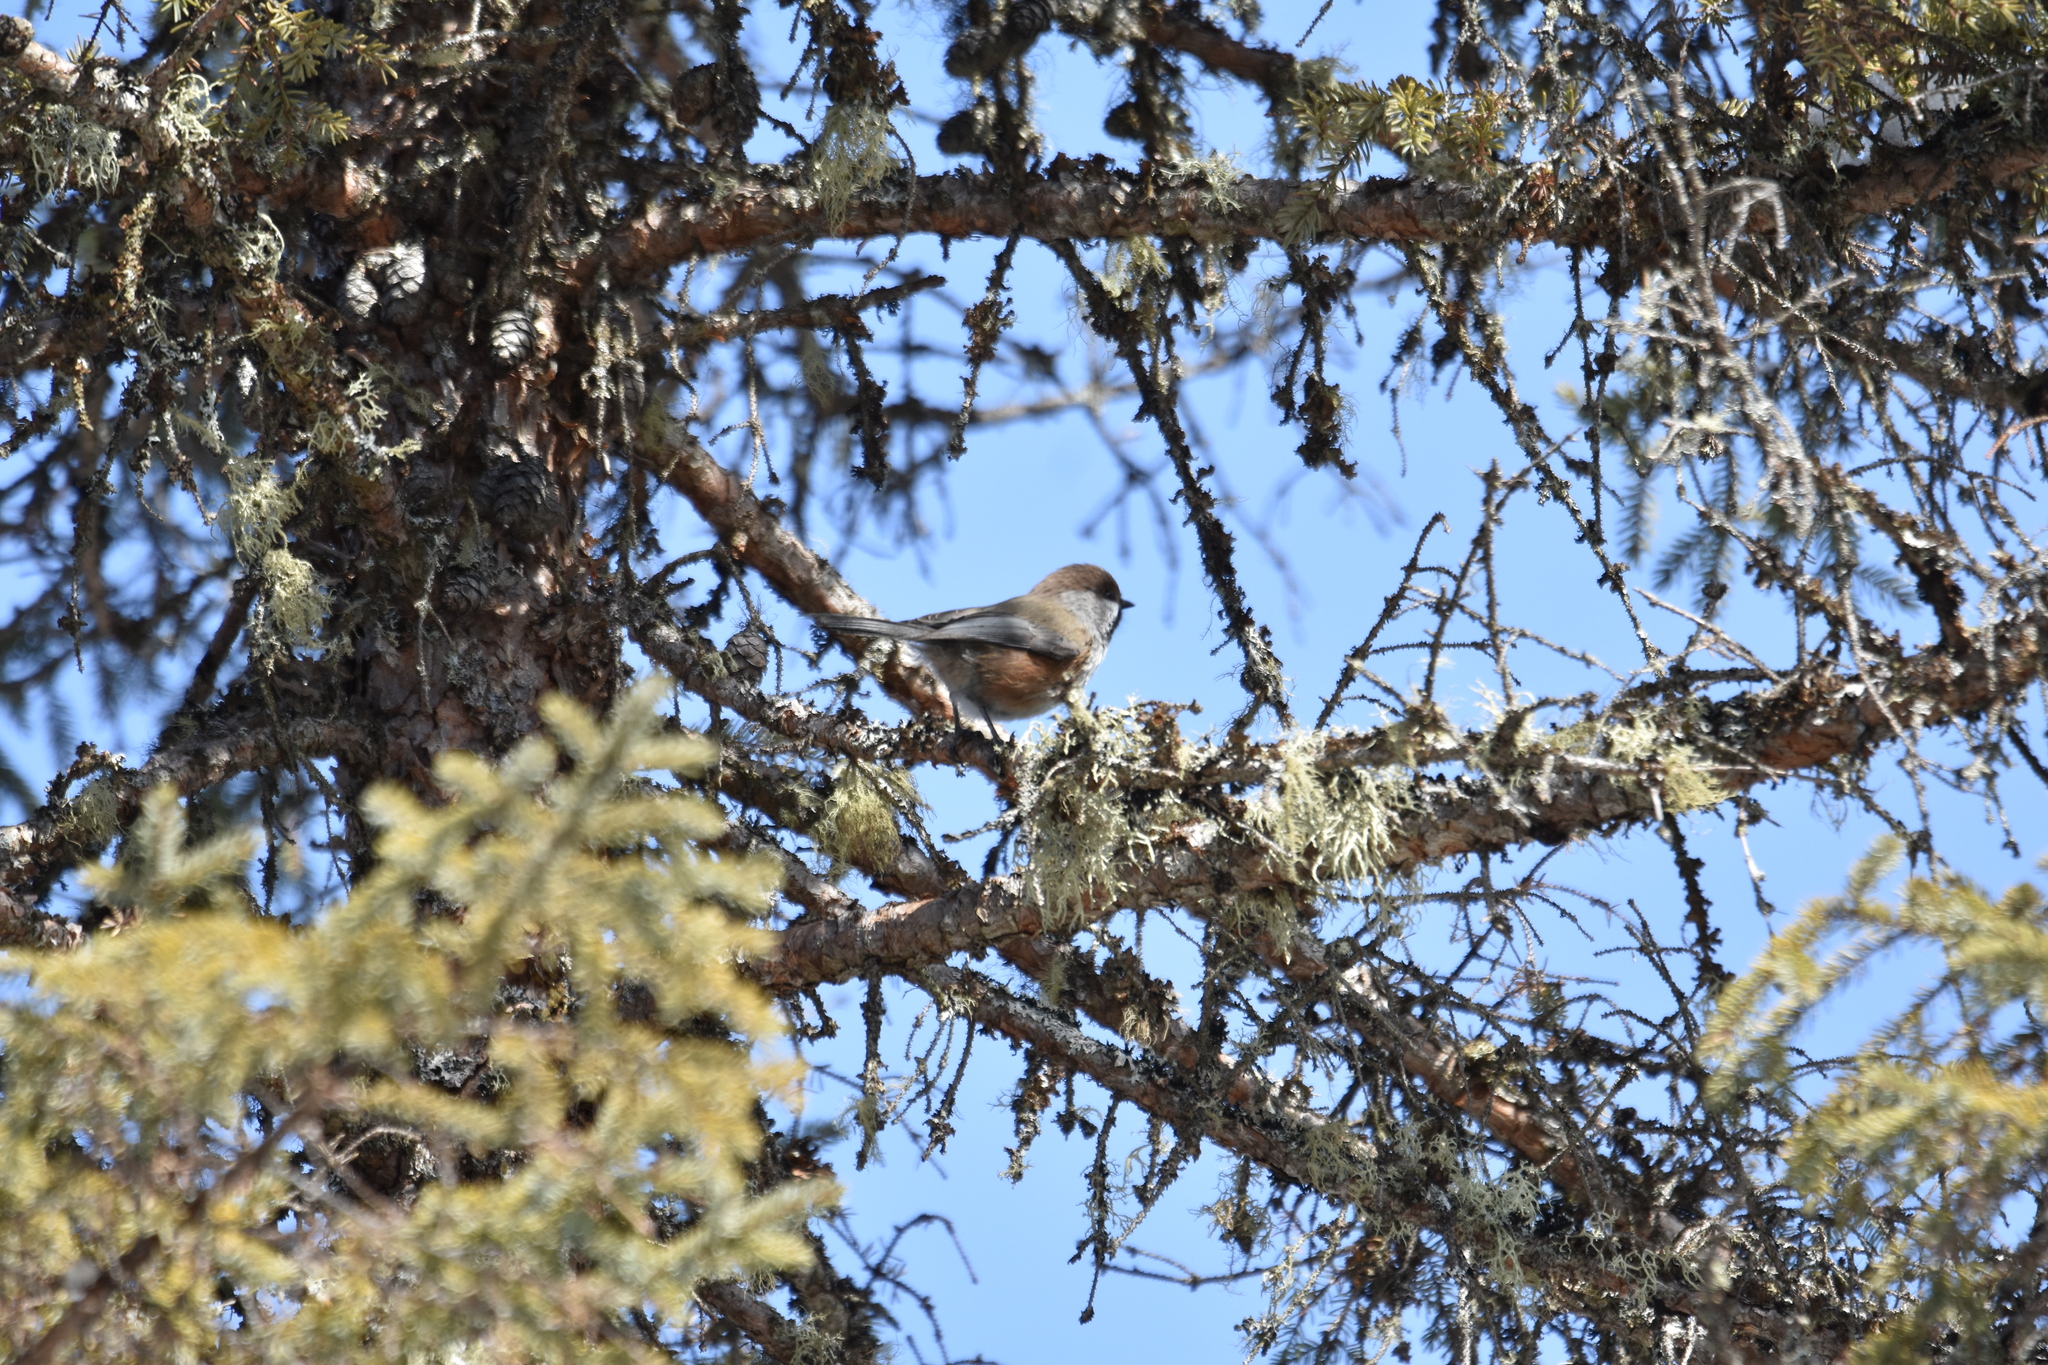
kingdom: Animalia
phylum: Chordata
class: Aves
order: Passeriformes
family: Paridae
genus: Poecile
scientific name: Poecile hudsonicus
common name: Boreal chickadee
